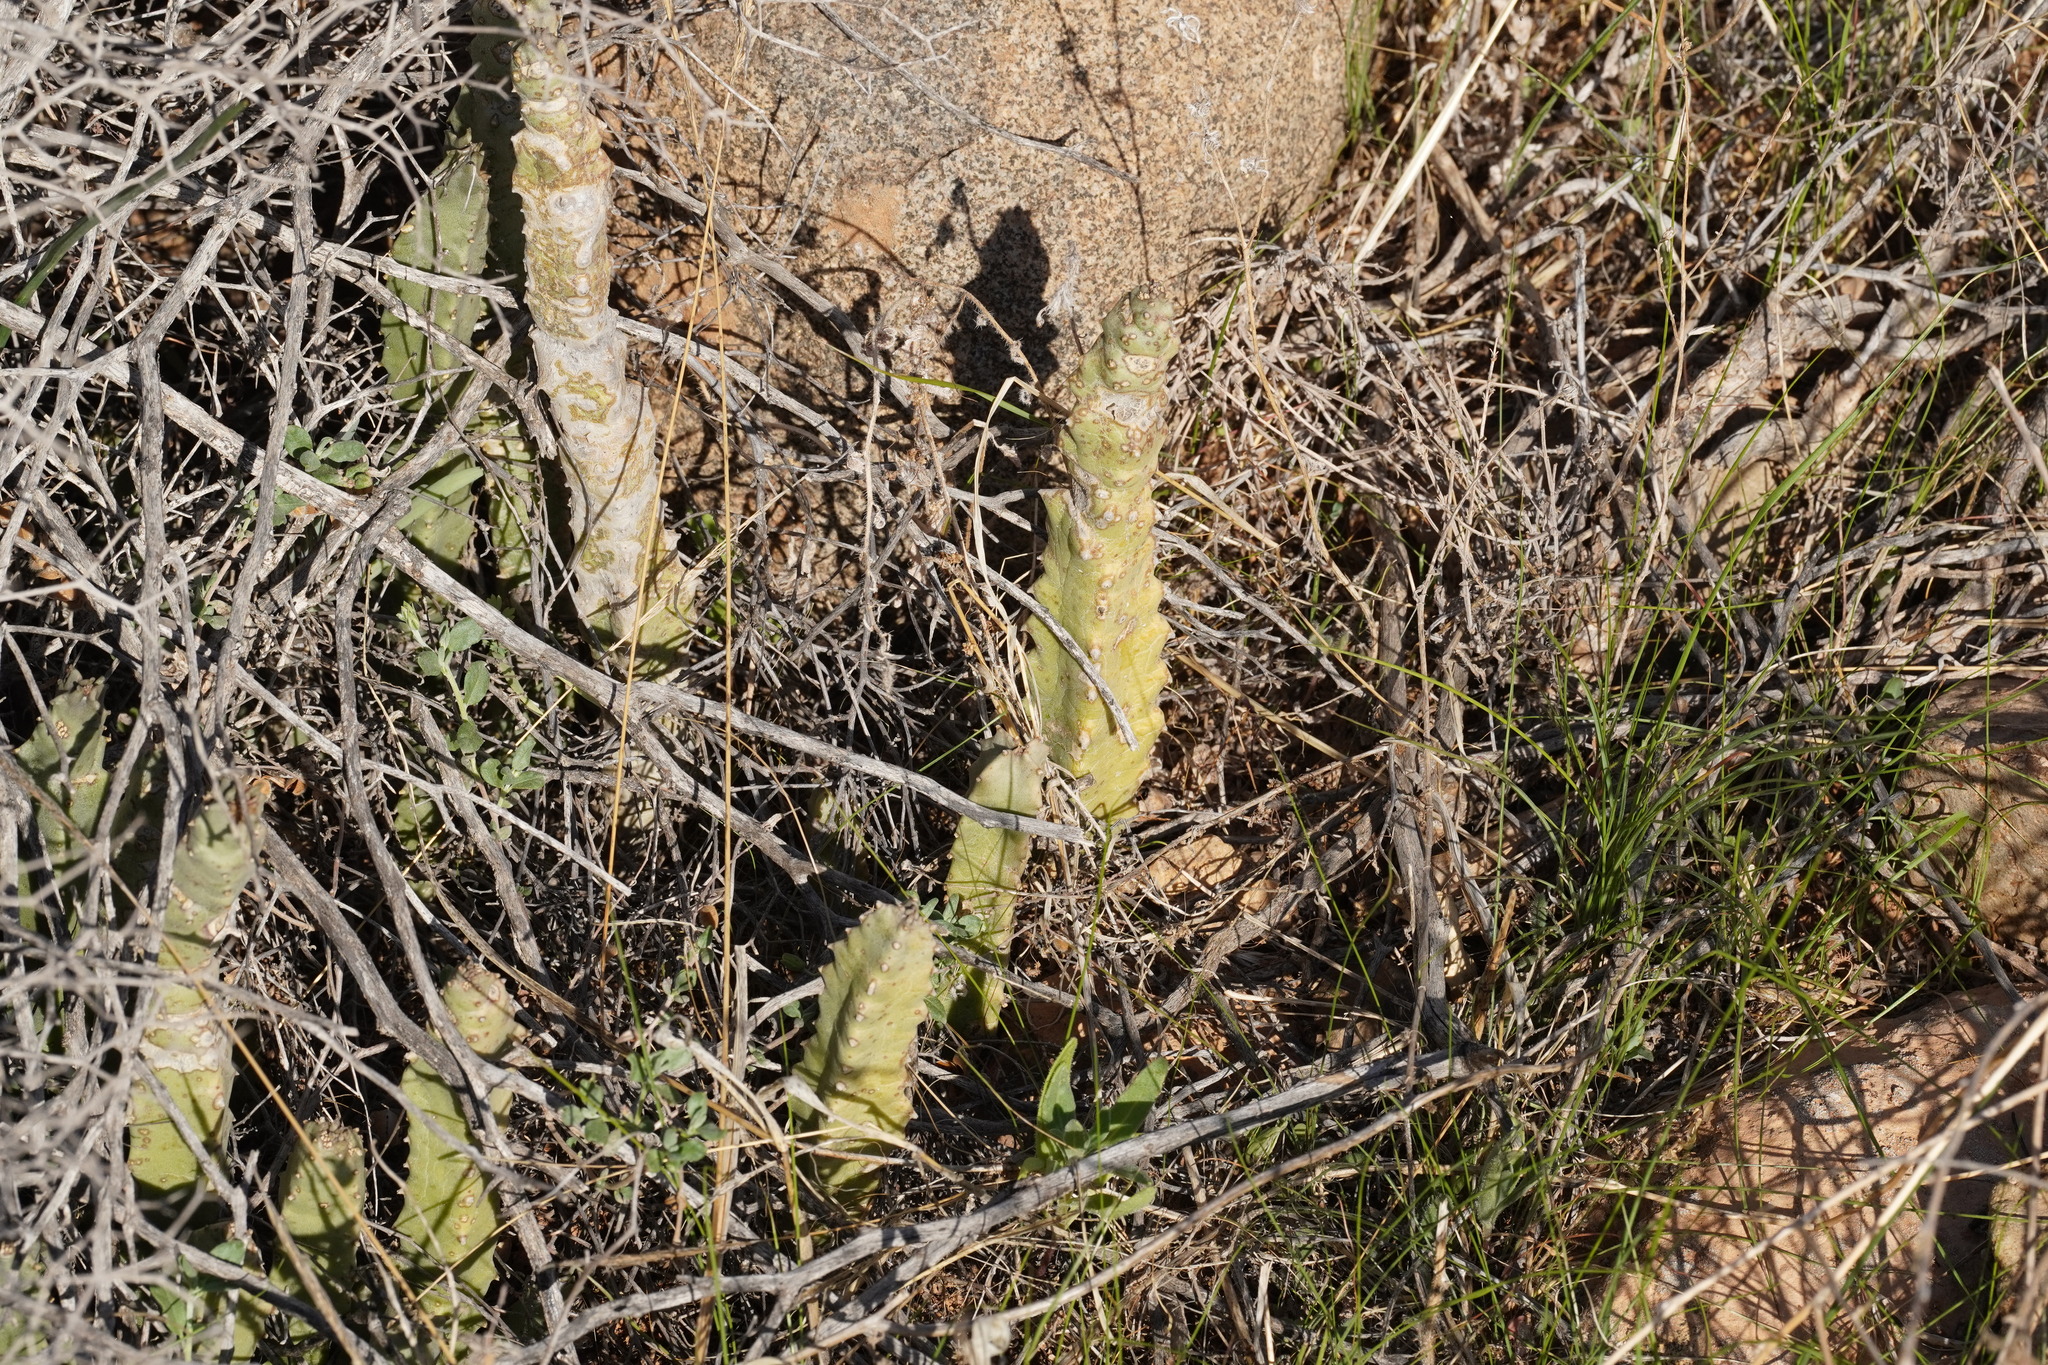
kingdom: Plantae
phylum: Tracheophyta
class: Magnoliopsida
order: Gentianales
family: Apocynaceae
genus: Ceropegia
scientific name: Ceropegia burchardii
